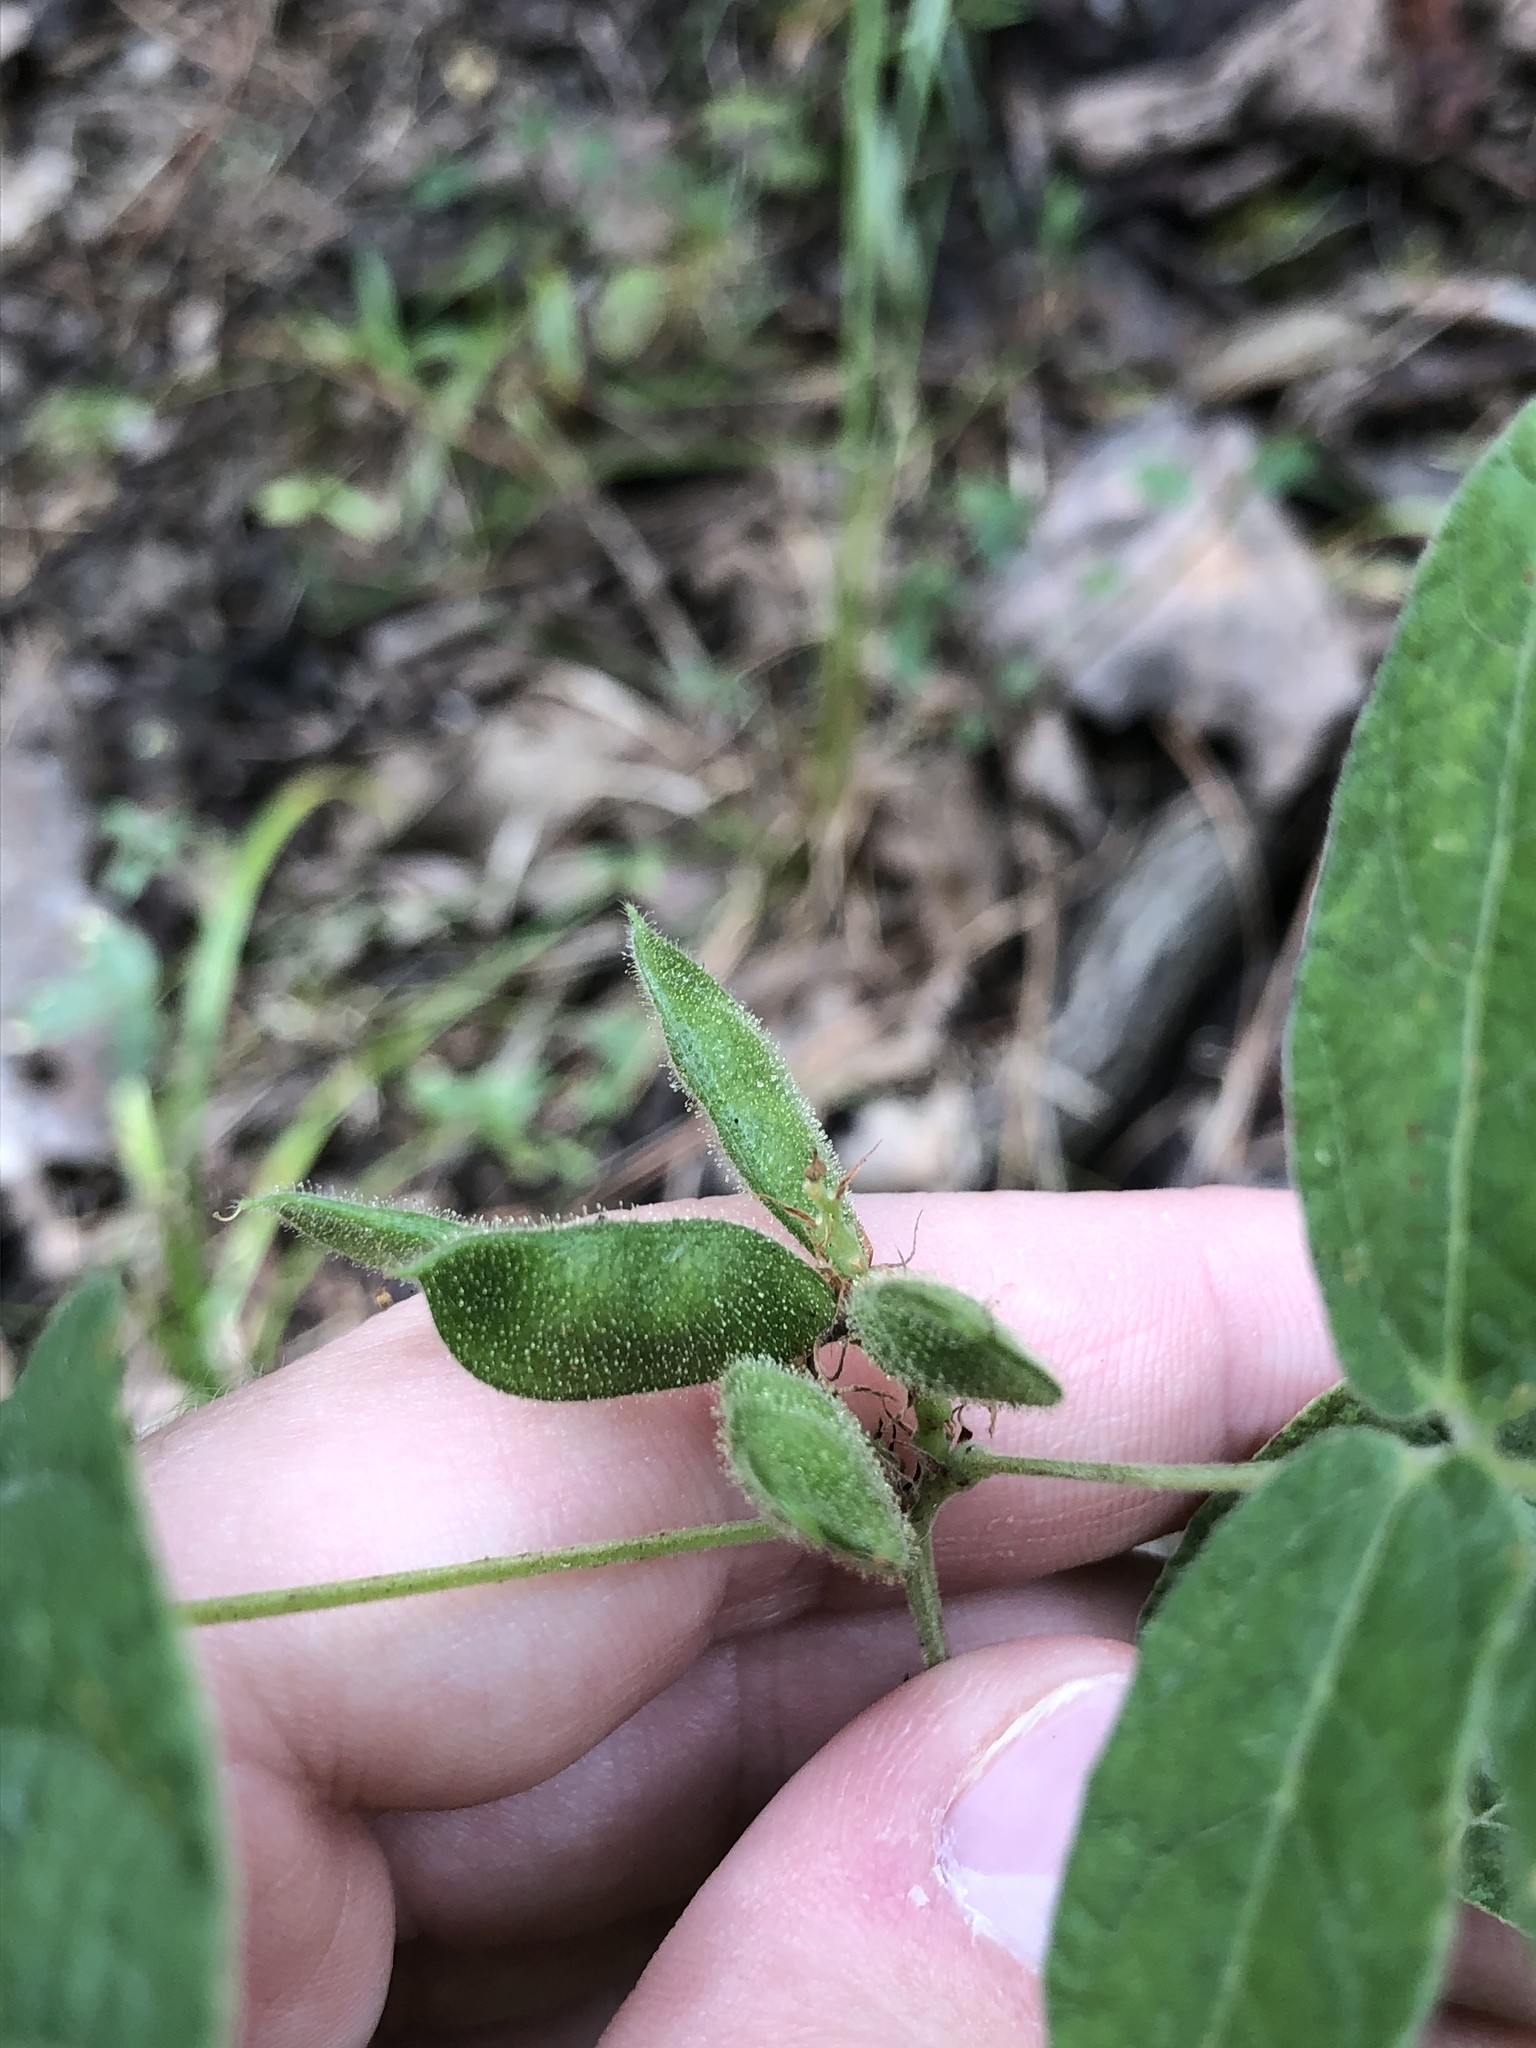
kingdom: Plantae
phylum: Tracheophyta
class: Magnoliopsida
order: Fabales
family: Fabaceae
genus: Rhynchosia
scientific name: Rhynchosia tomentosa
